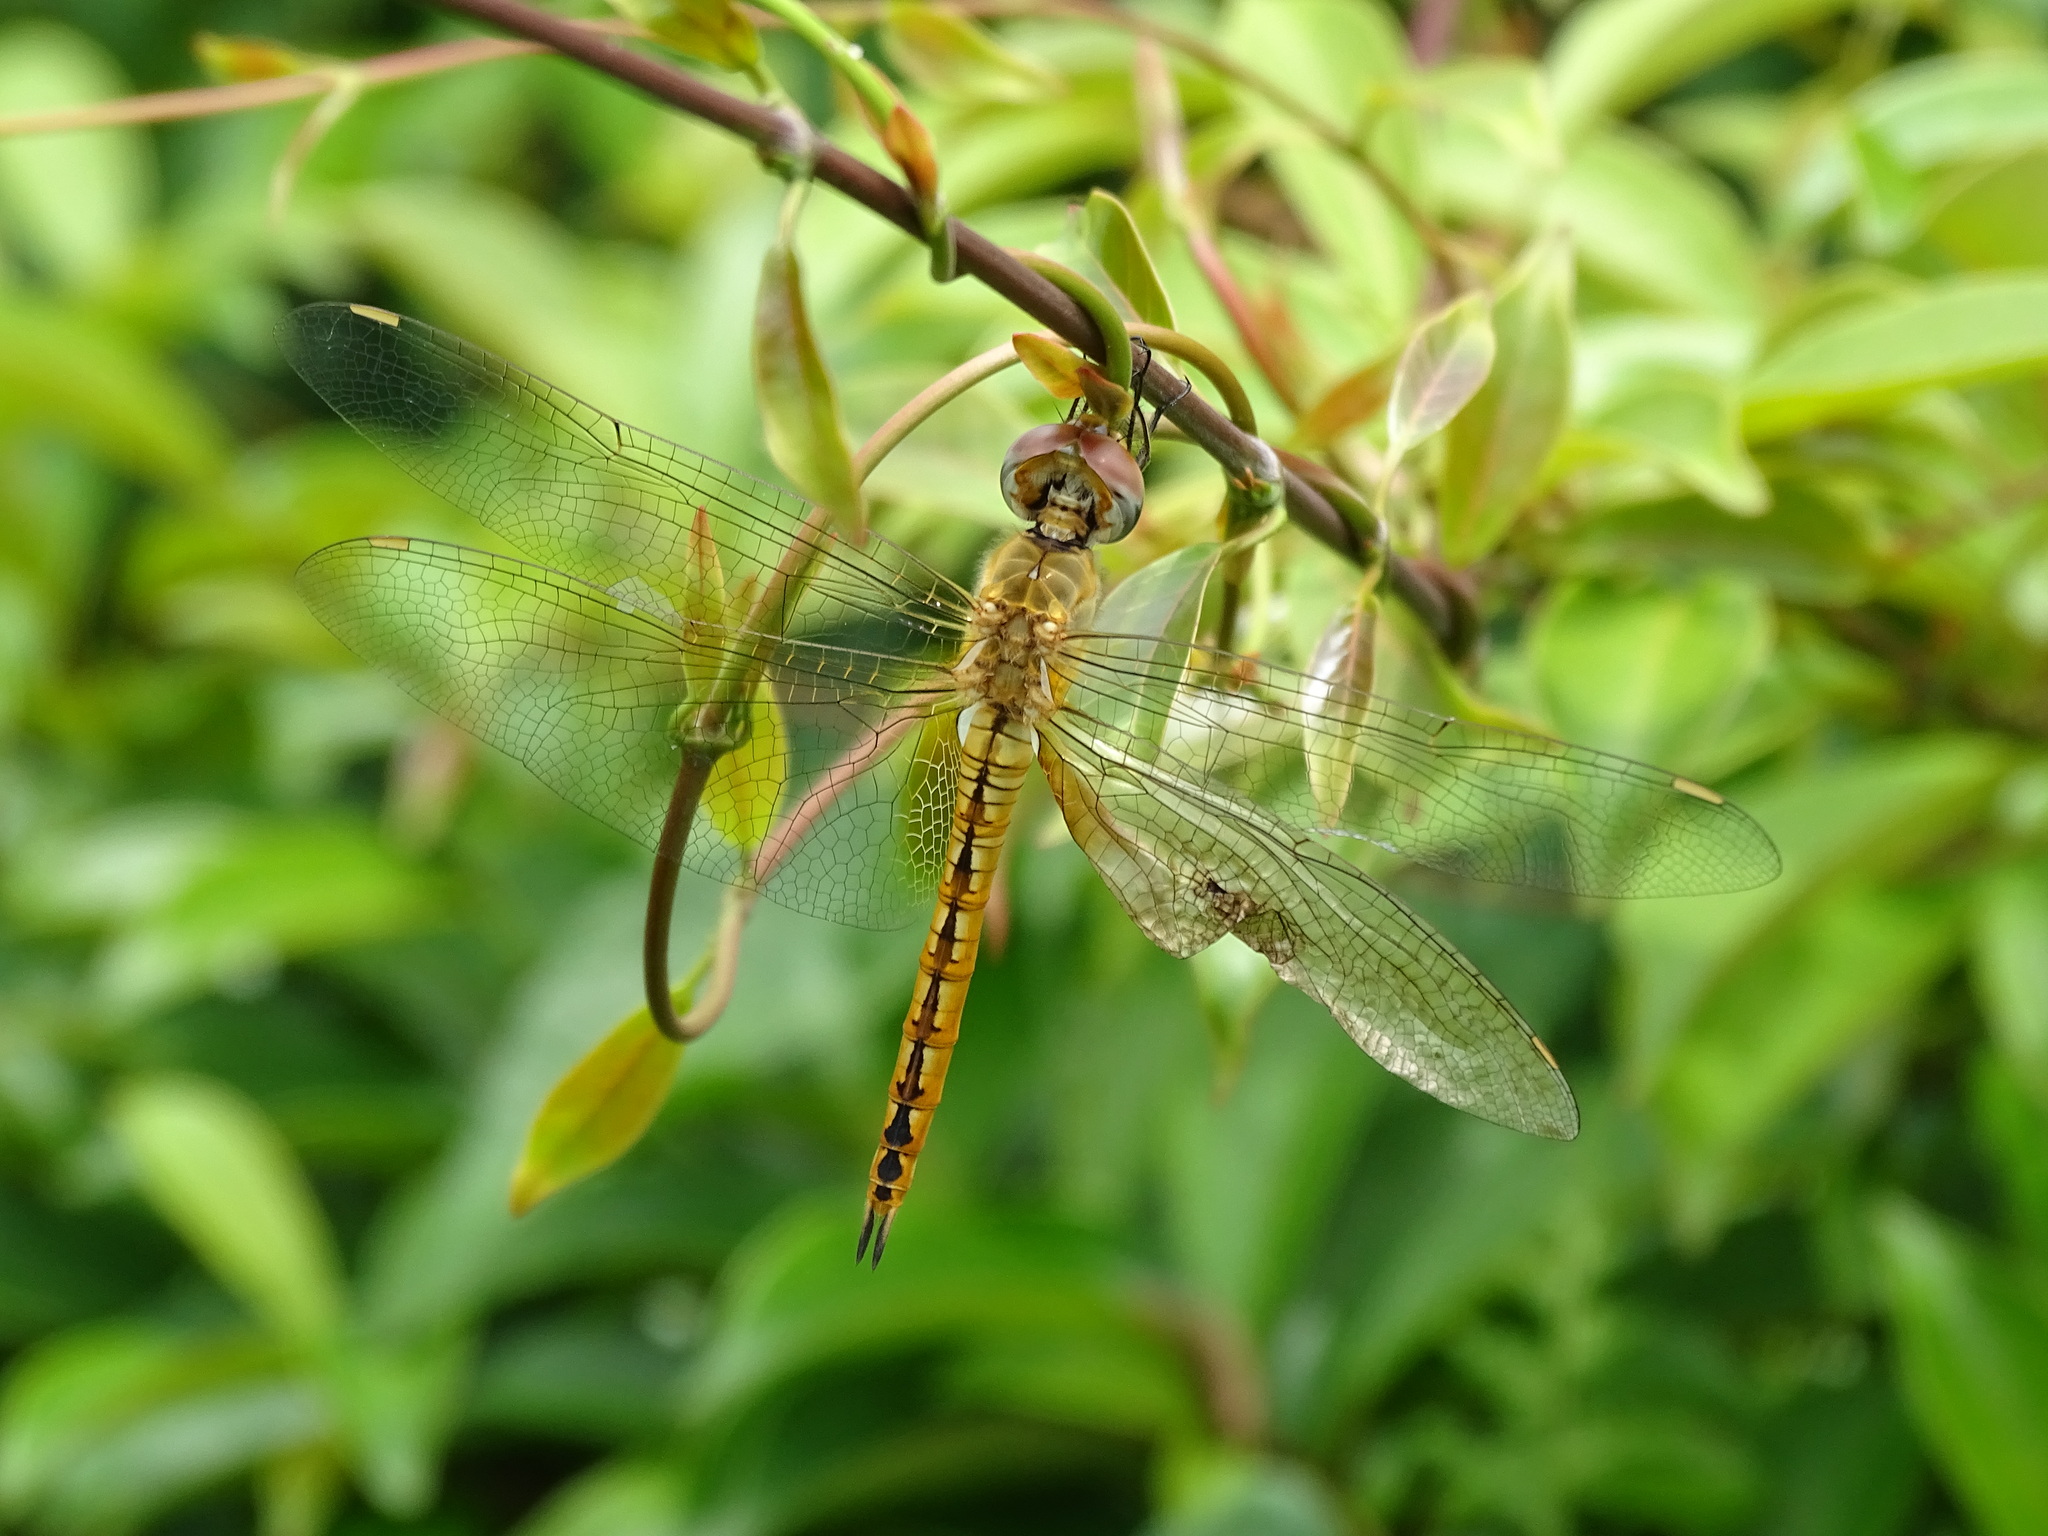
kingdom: Animalia
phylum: Arthropoda
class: Insecta
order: Odonata
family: Libellulidae
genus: Pantala
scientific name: Pantala flavescens
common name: Wandering glider
